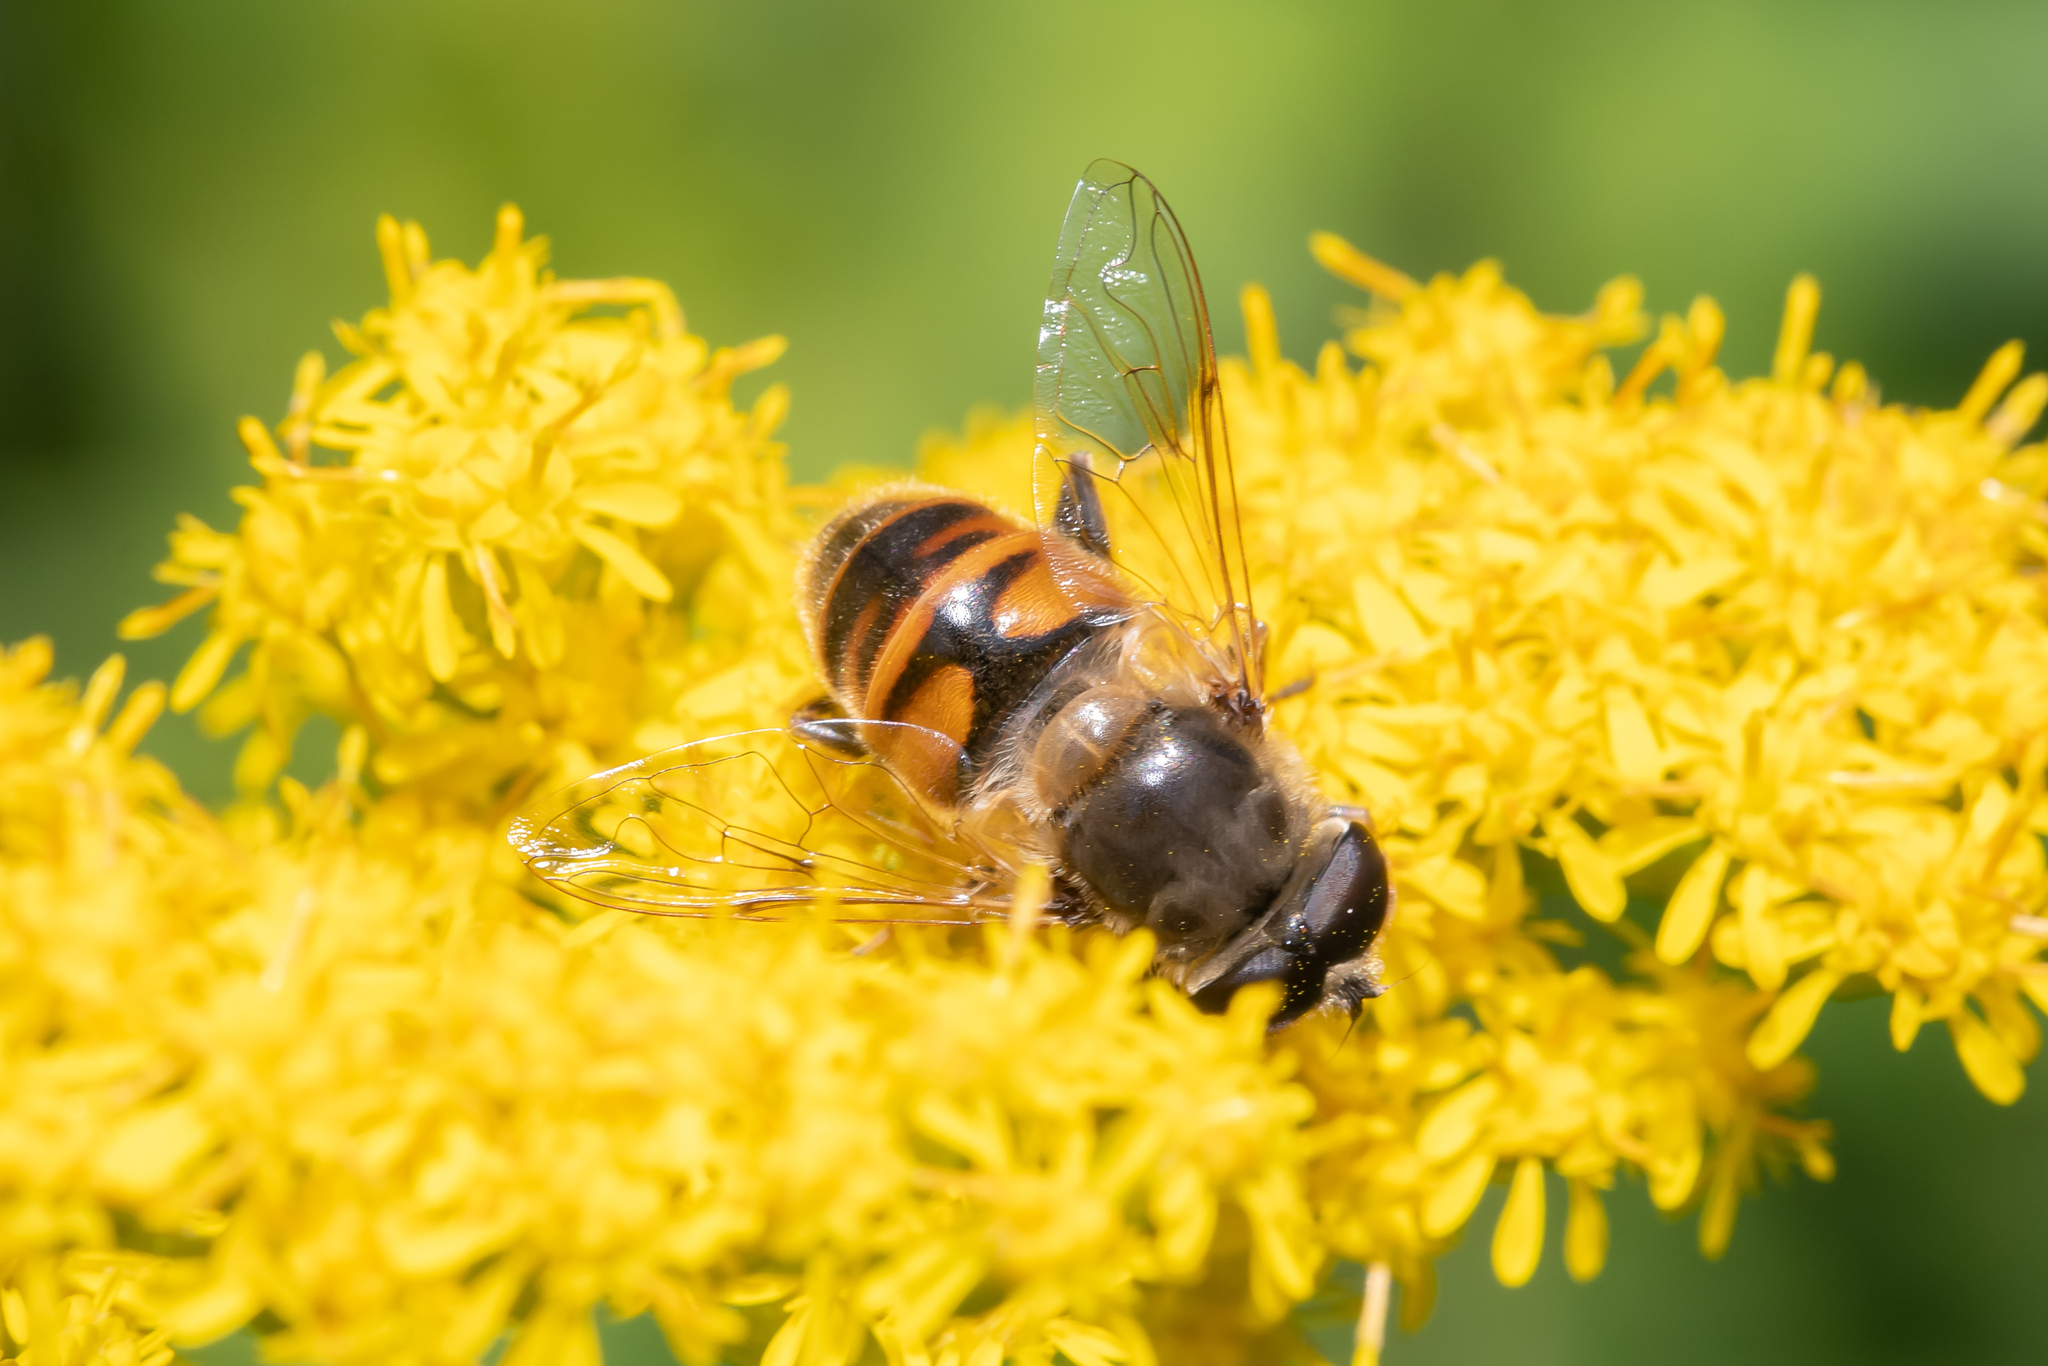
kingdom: Animalia
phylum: Arthropoda
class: Insecta
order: Diptera
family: Syrphidae
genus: Eristalis
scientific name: Eristalis tenax
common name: Drone fly
